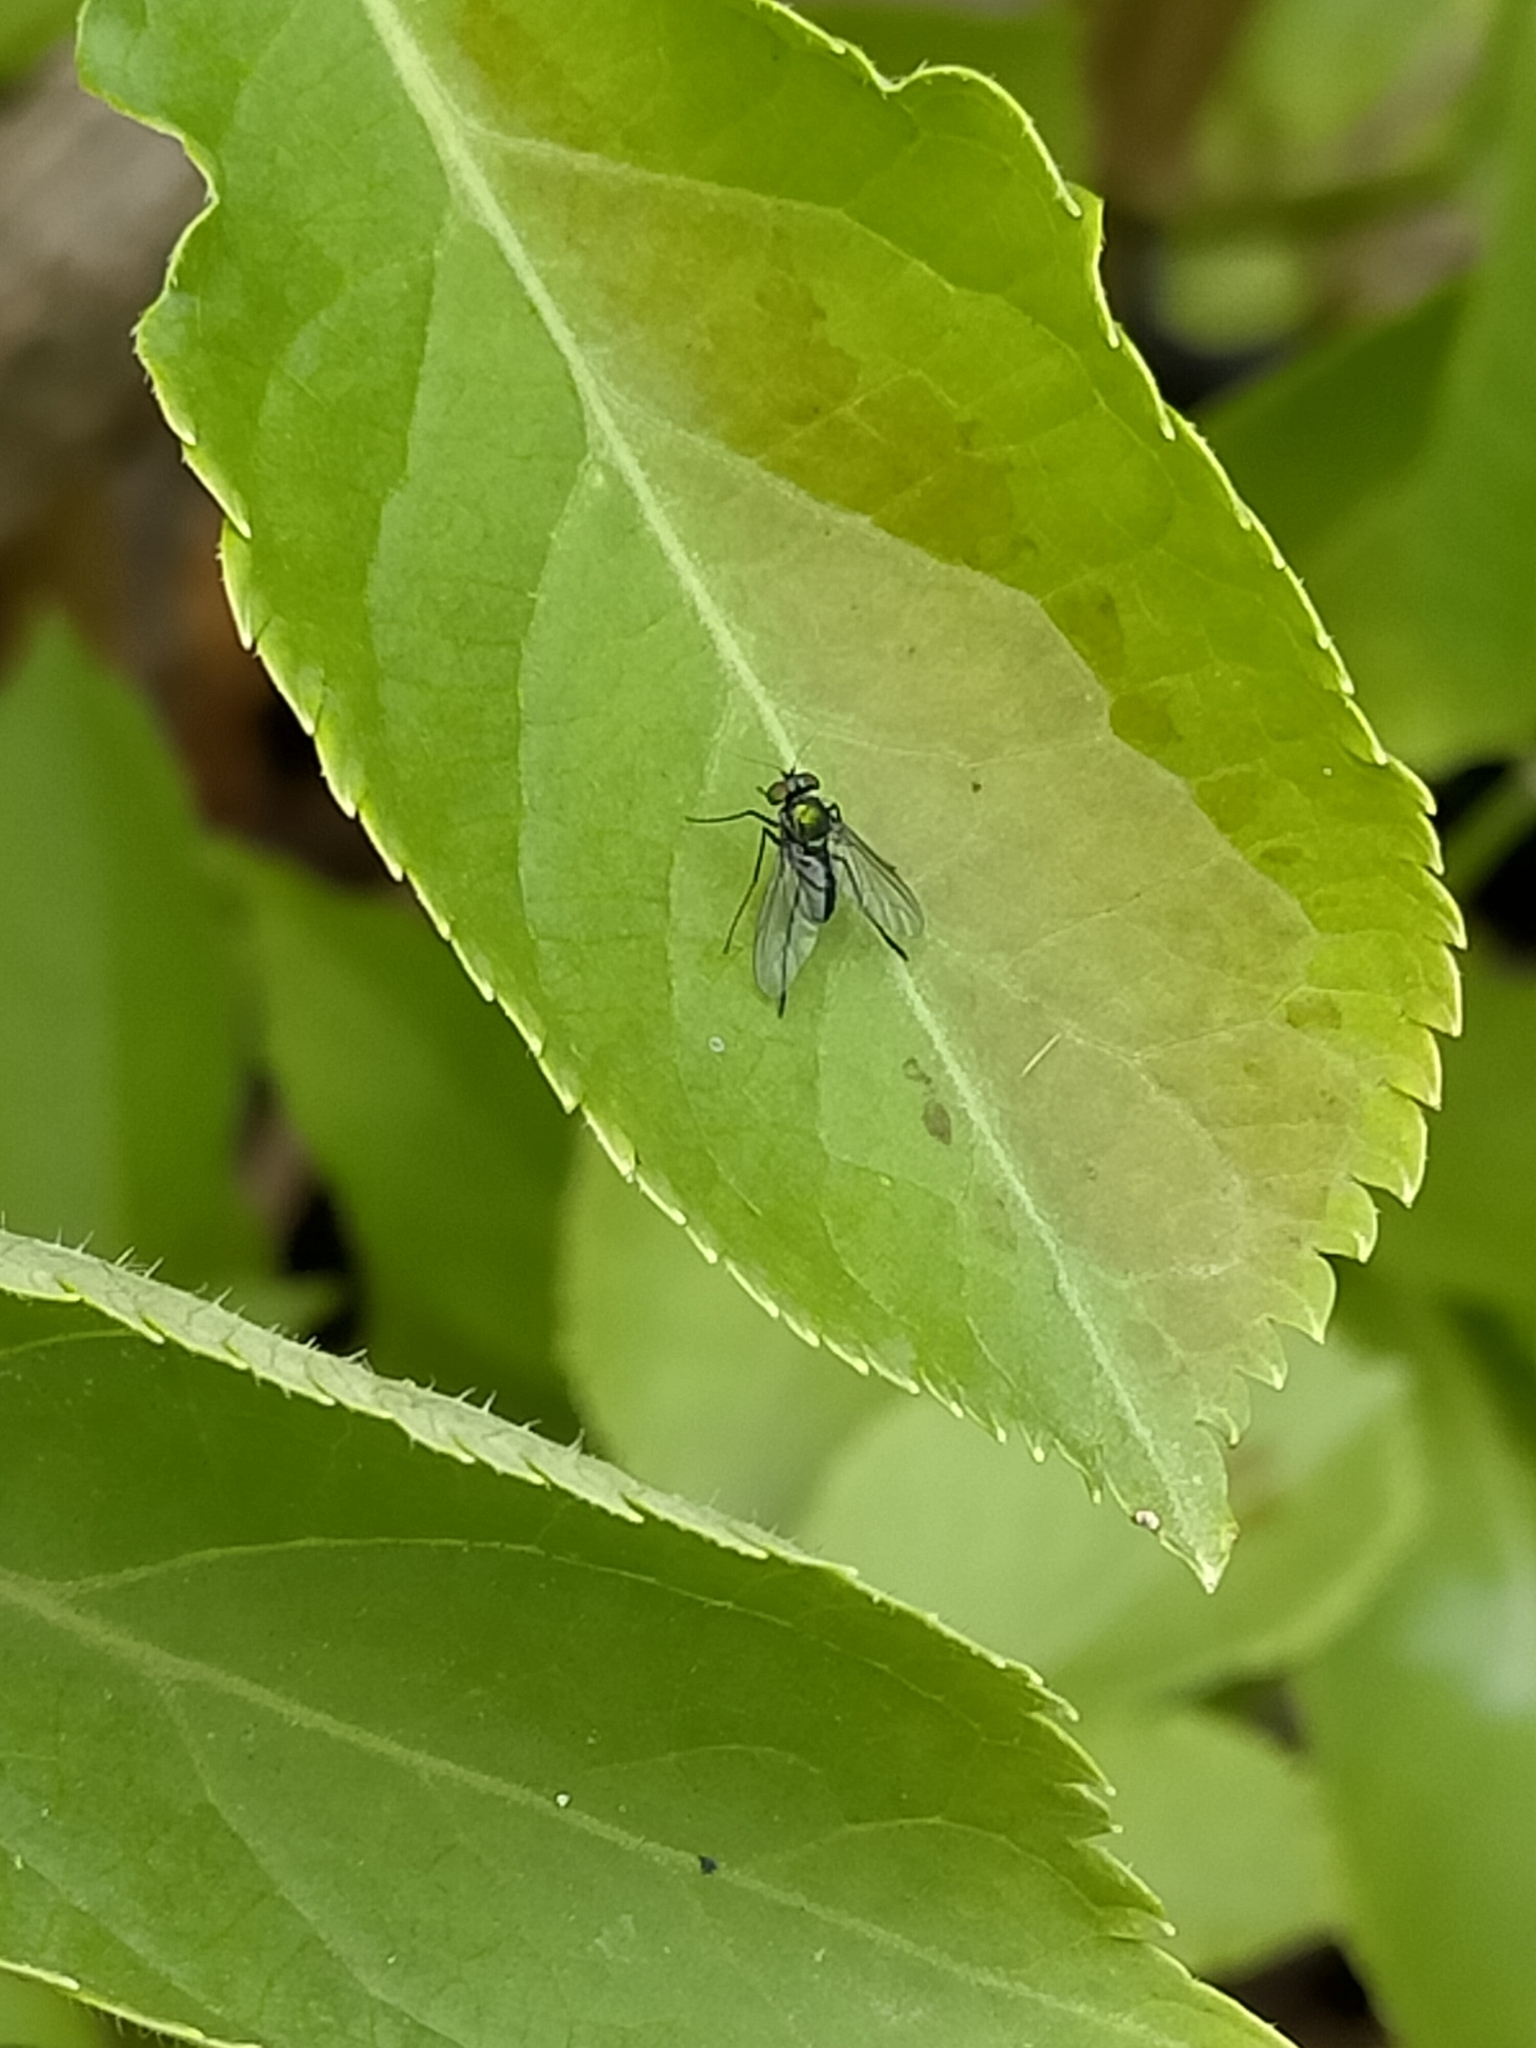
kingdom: Animalia
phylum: Arthropoda
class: Insecta
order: Diptera
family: Dolichopodidae
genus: Parentia
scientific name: Parentia vulgaris
